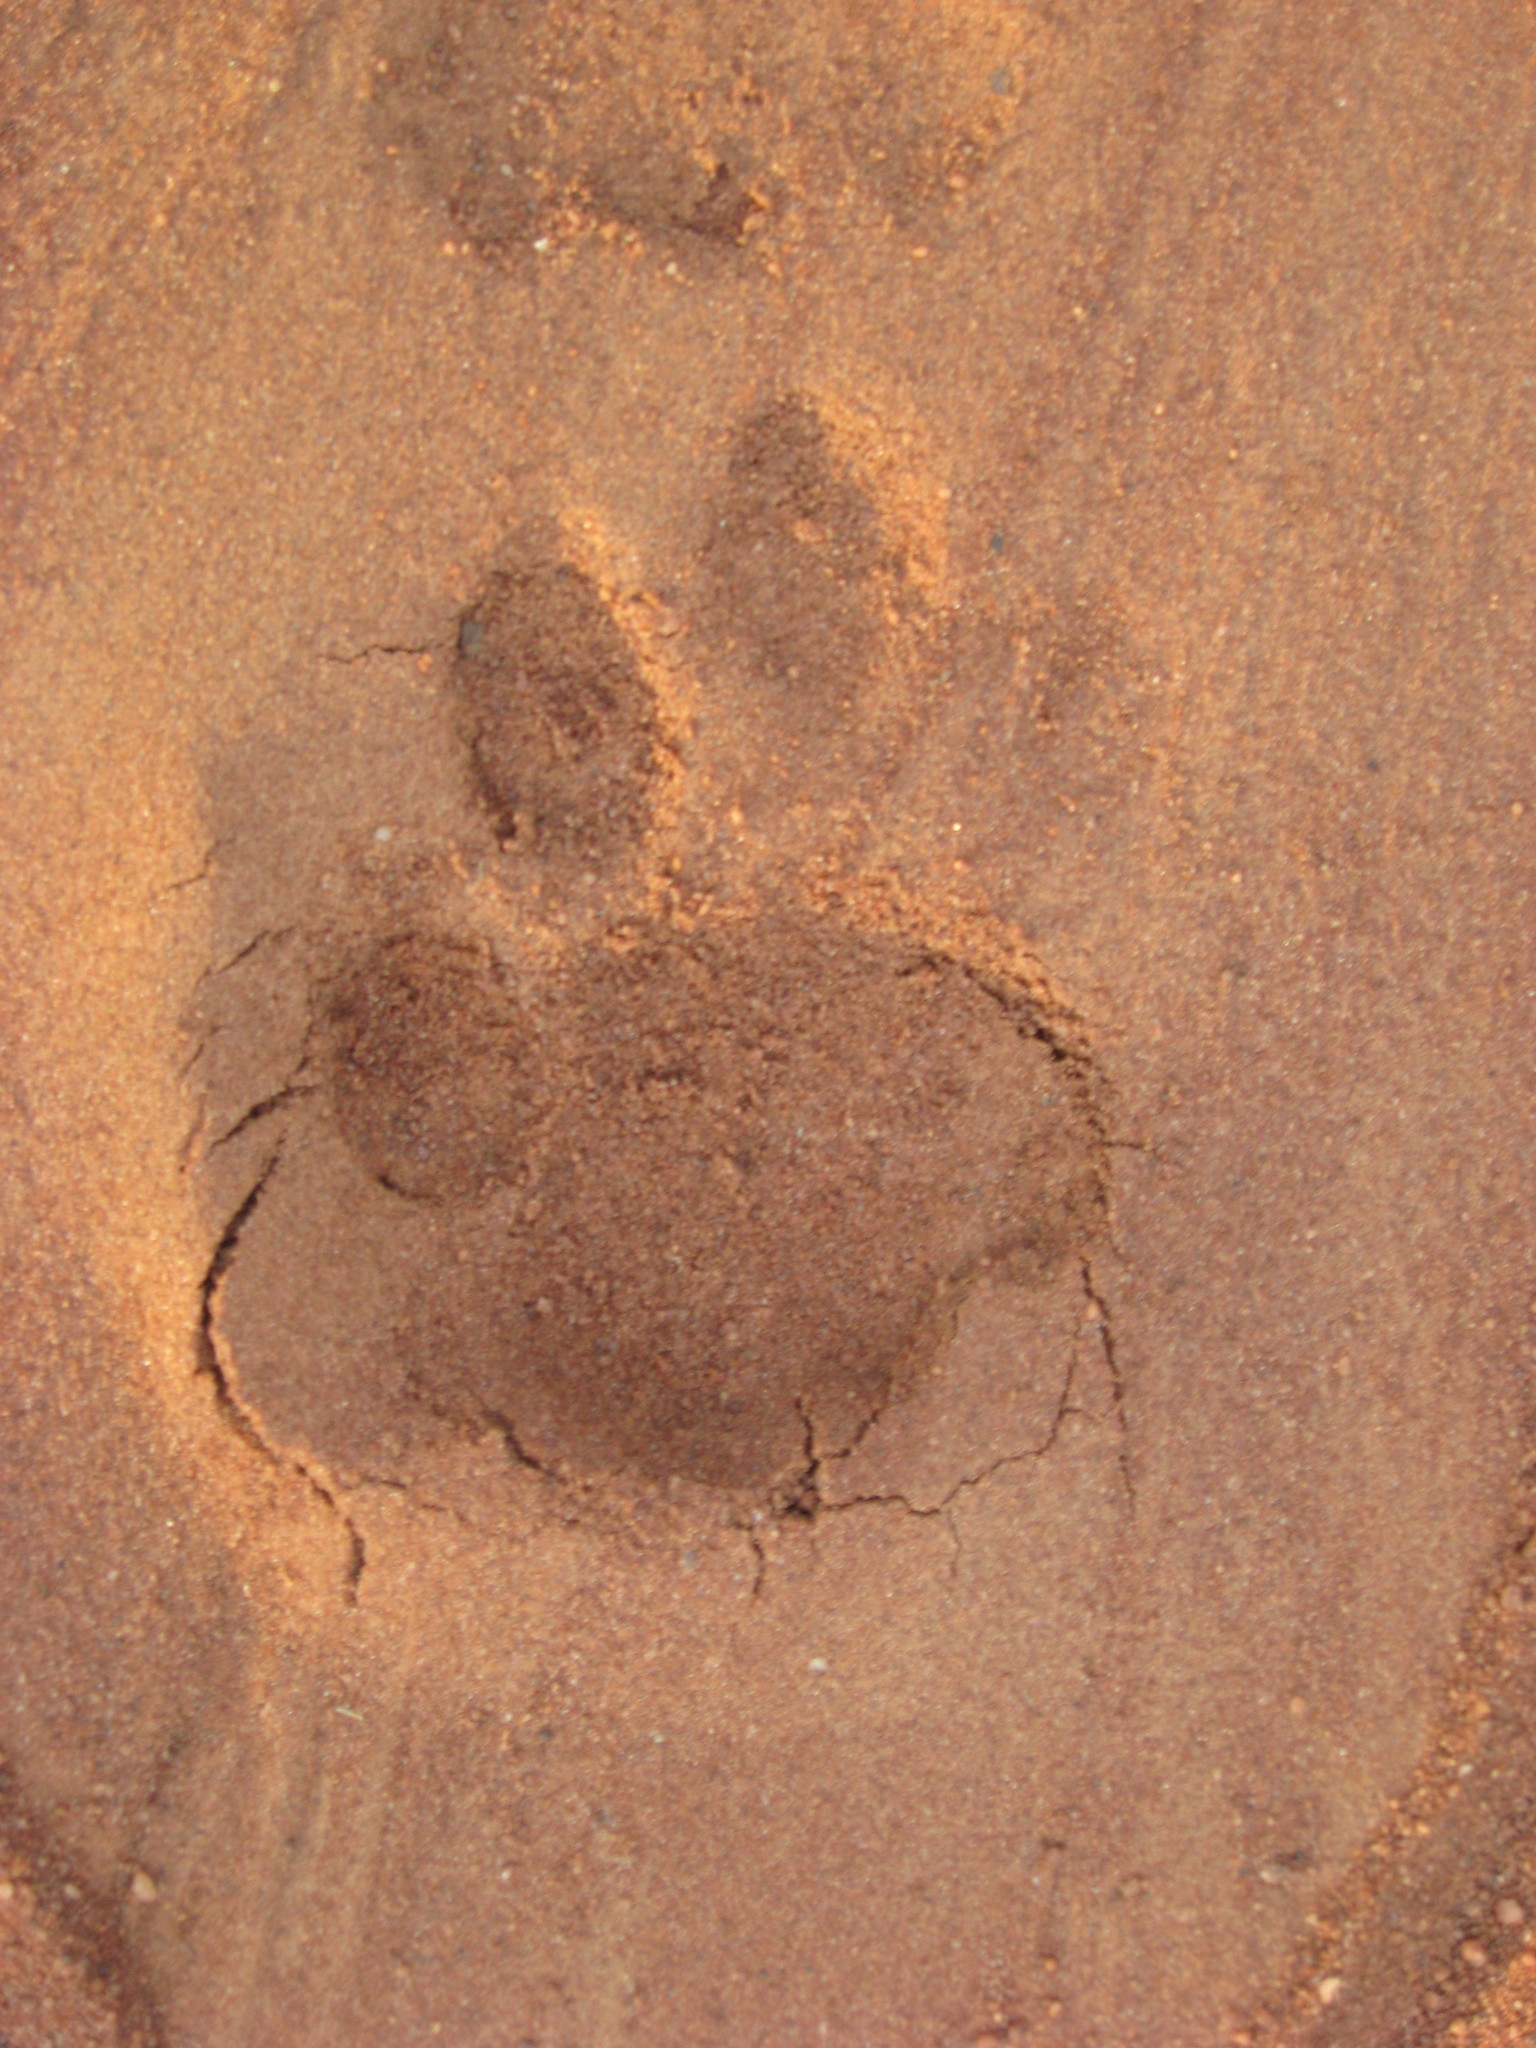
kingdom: Animalia
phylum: Chordata
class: Mammalia
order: Carnivora
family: Felidae
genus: Panthera
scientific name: Panthera pardus
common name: Leopard
